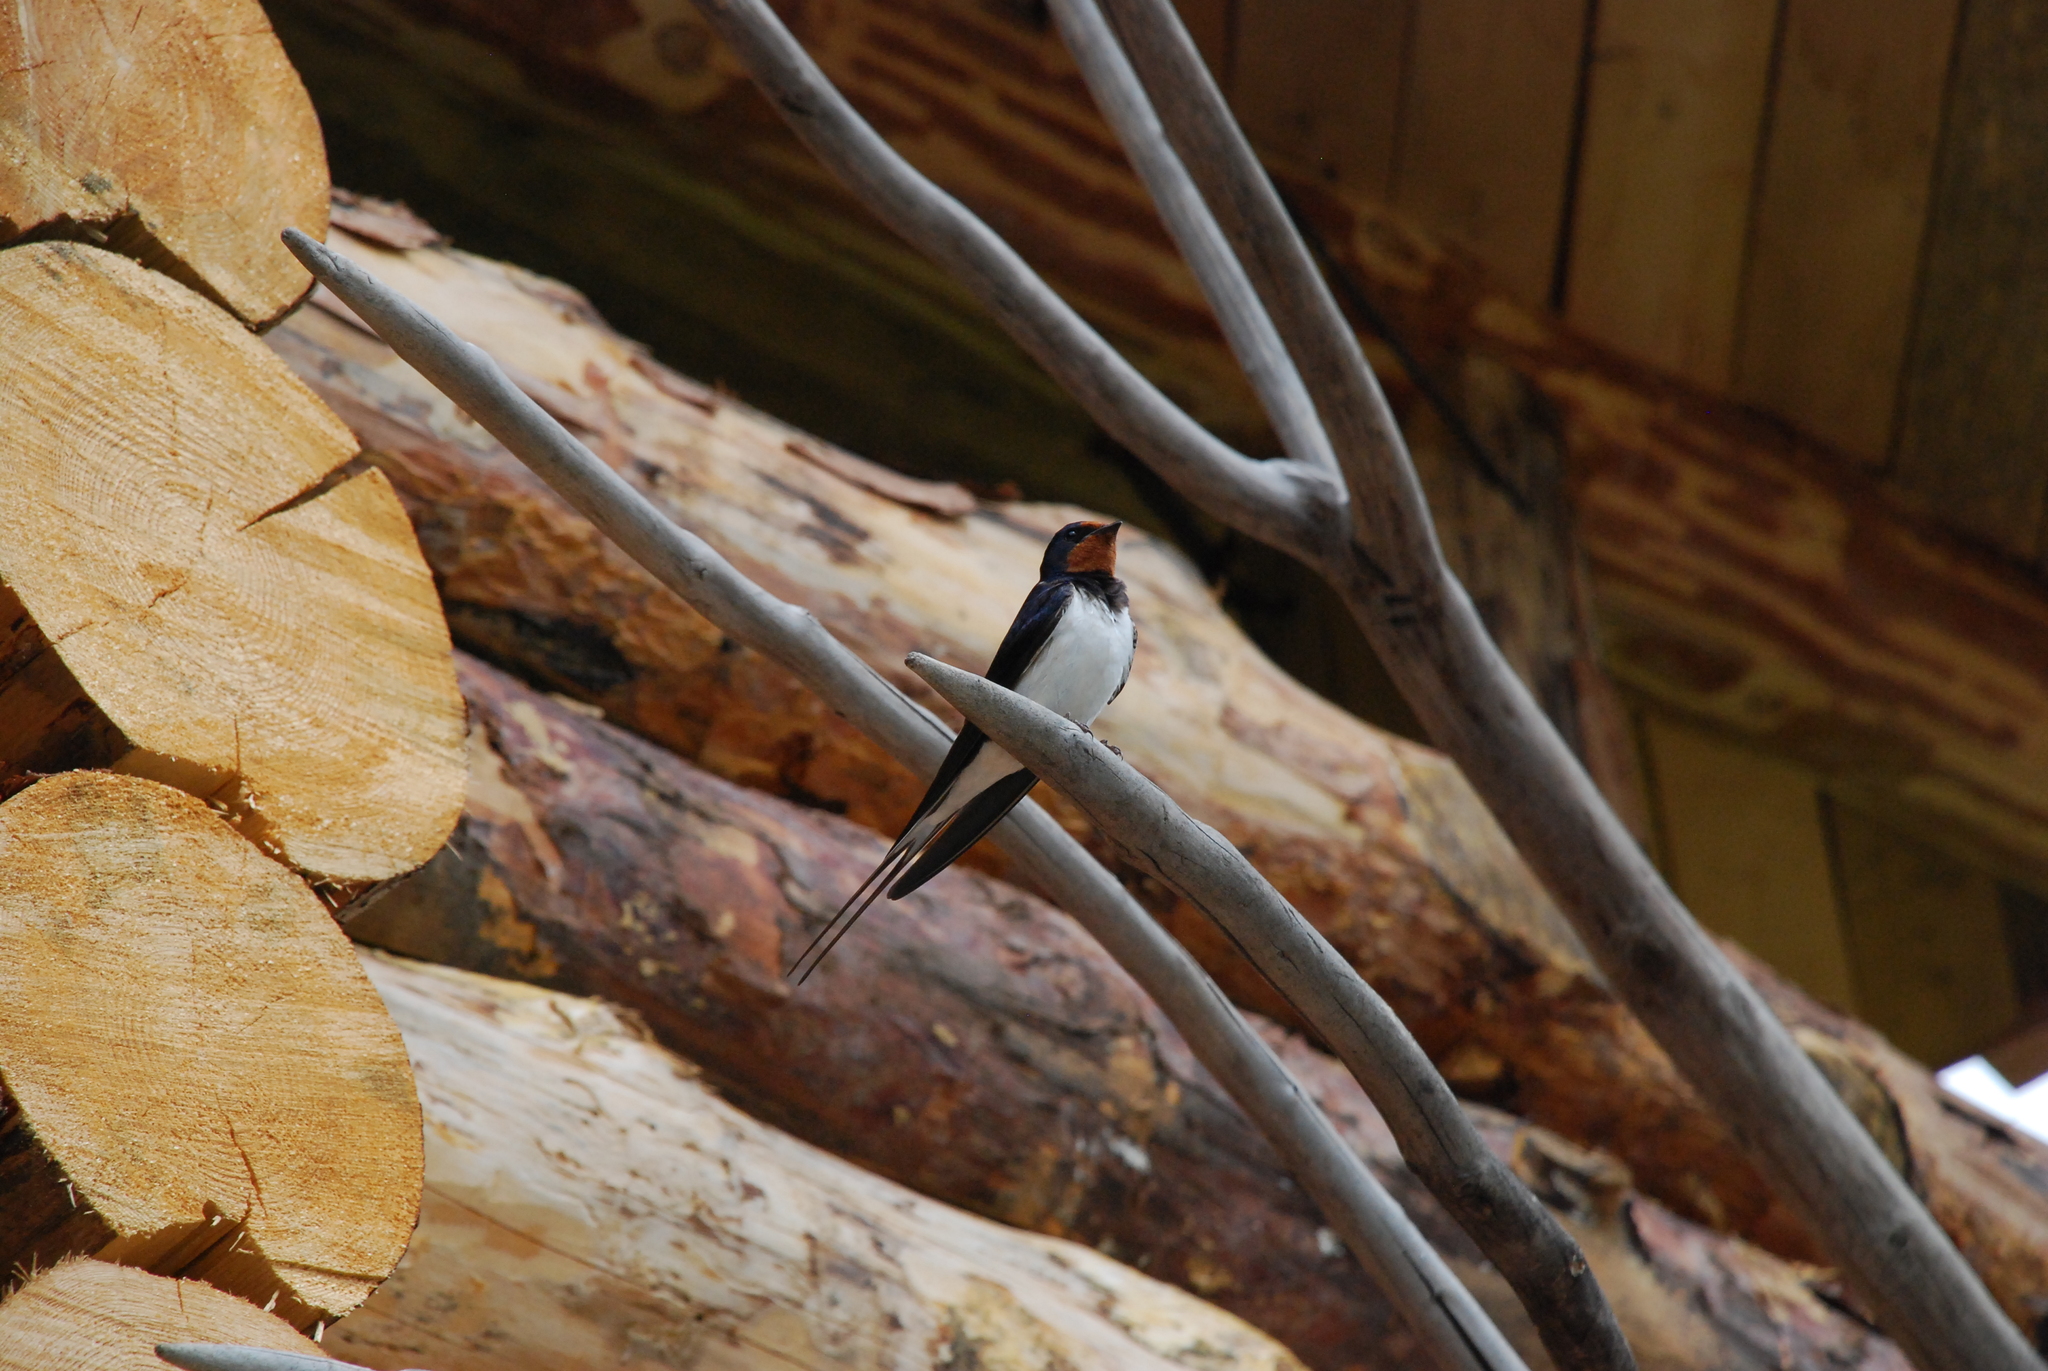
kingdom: Animalia
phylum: Chordata
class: Aves
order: Passeriformes
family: Hirundinidae
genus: Hirundo
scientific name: Hirundo rustica
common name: Barn swallow
